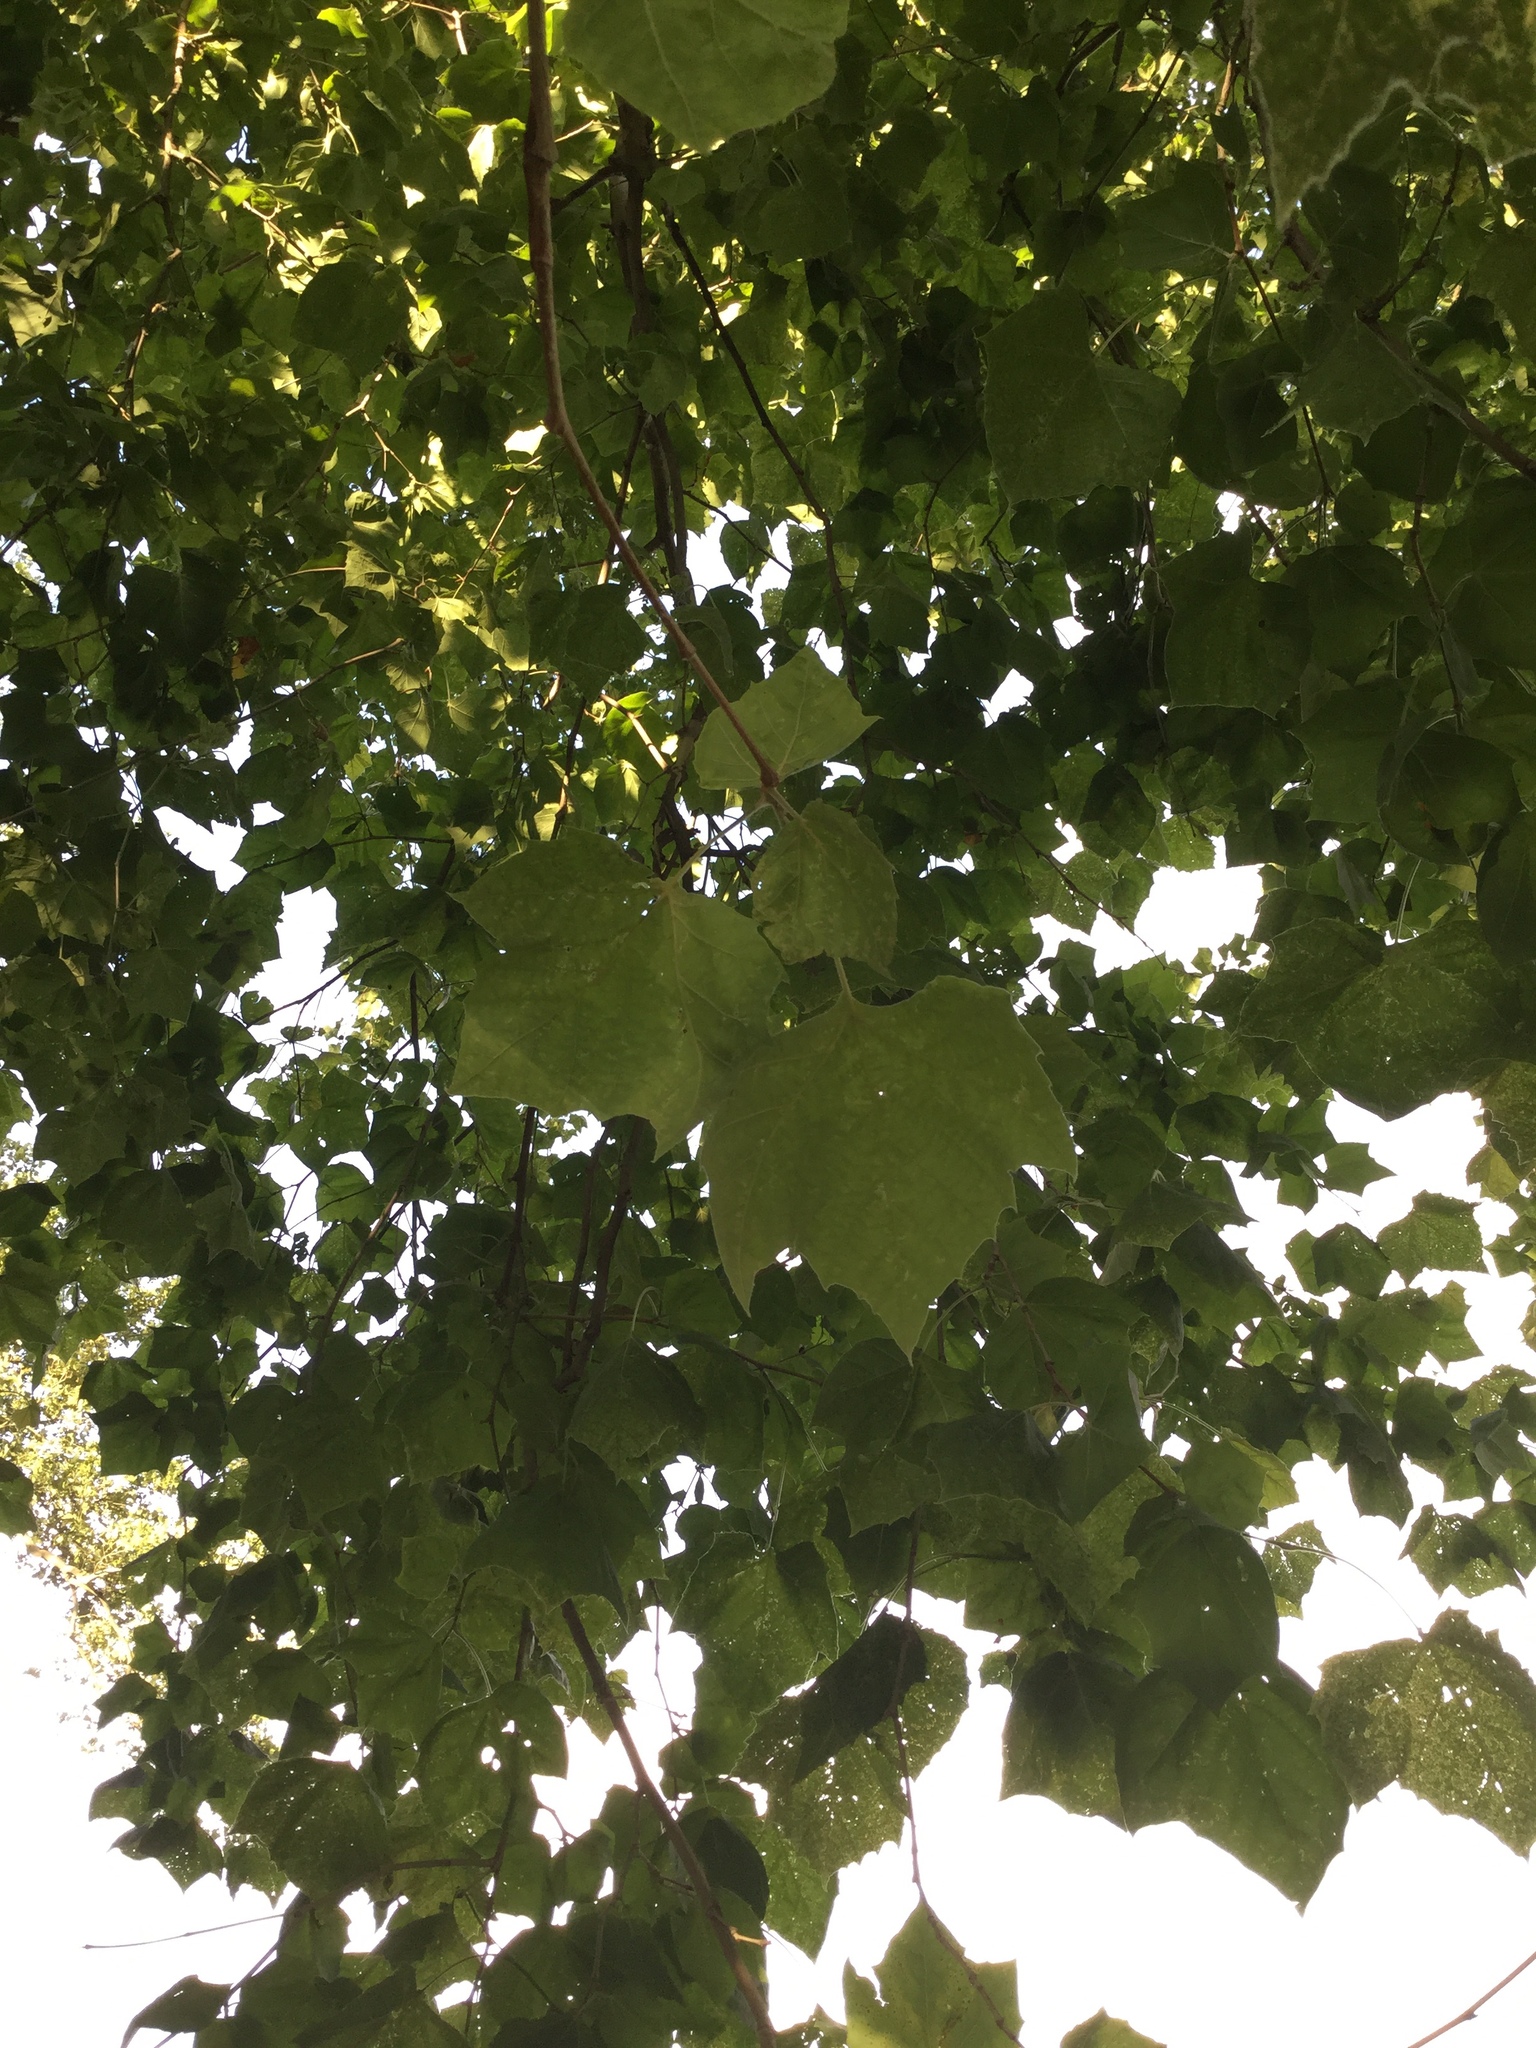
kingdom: Plantae
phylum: Tracheophyta
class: Magnoliopsida
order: Proteales
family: Platanaceae
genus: Platanus
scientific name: Platanus occidentalis
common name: American sycamore
